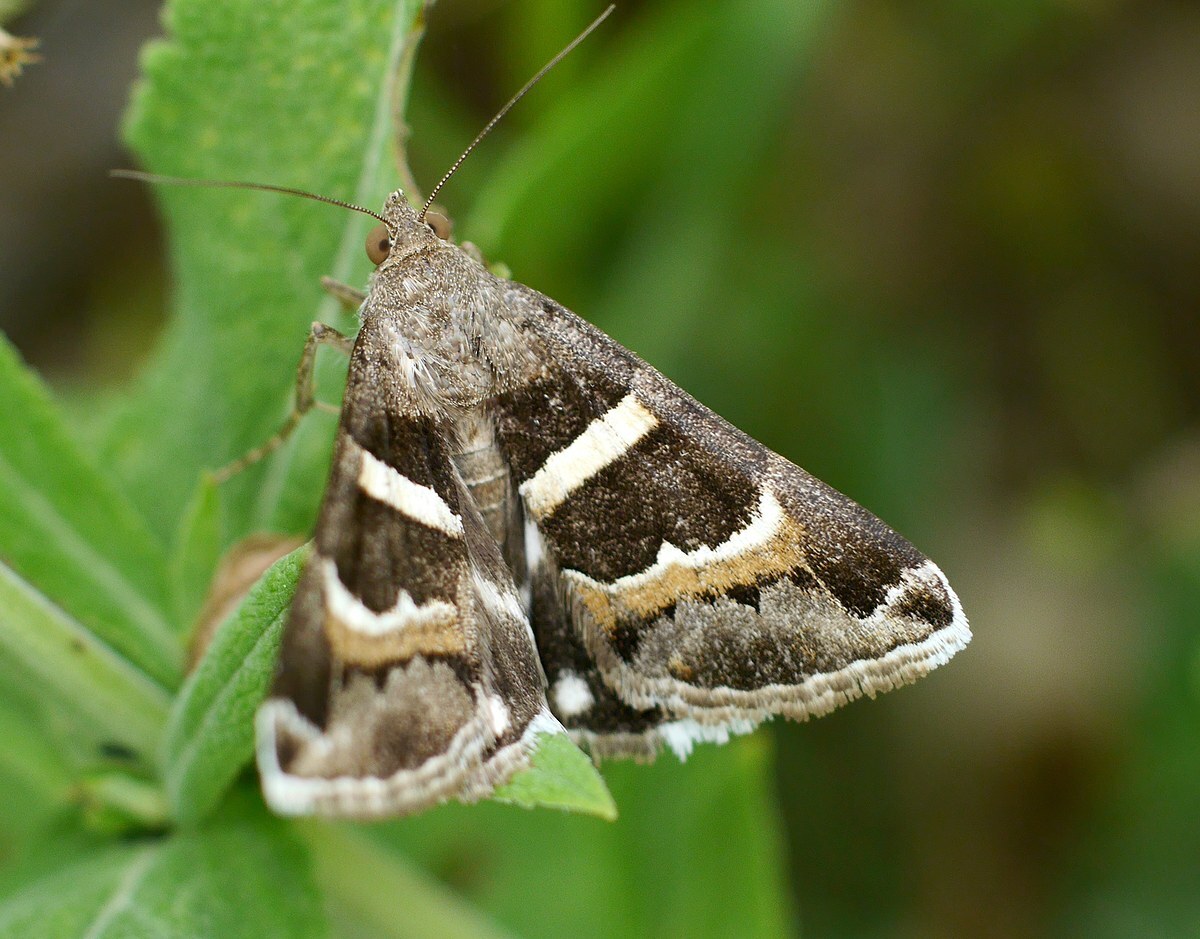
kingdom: Animalia
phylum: Arthropoda
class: Insecta
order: Lepidoptera
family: Erebidae
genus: Grammodes
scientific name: Grammodes stolida
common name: Geometrician
